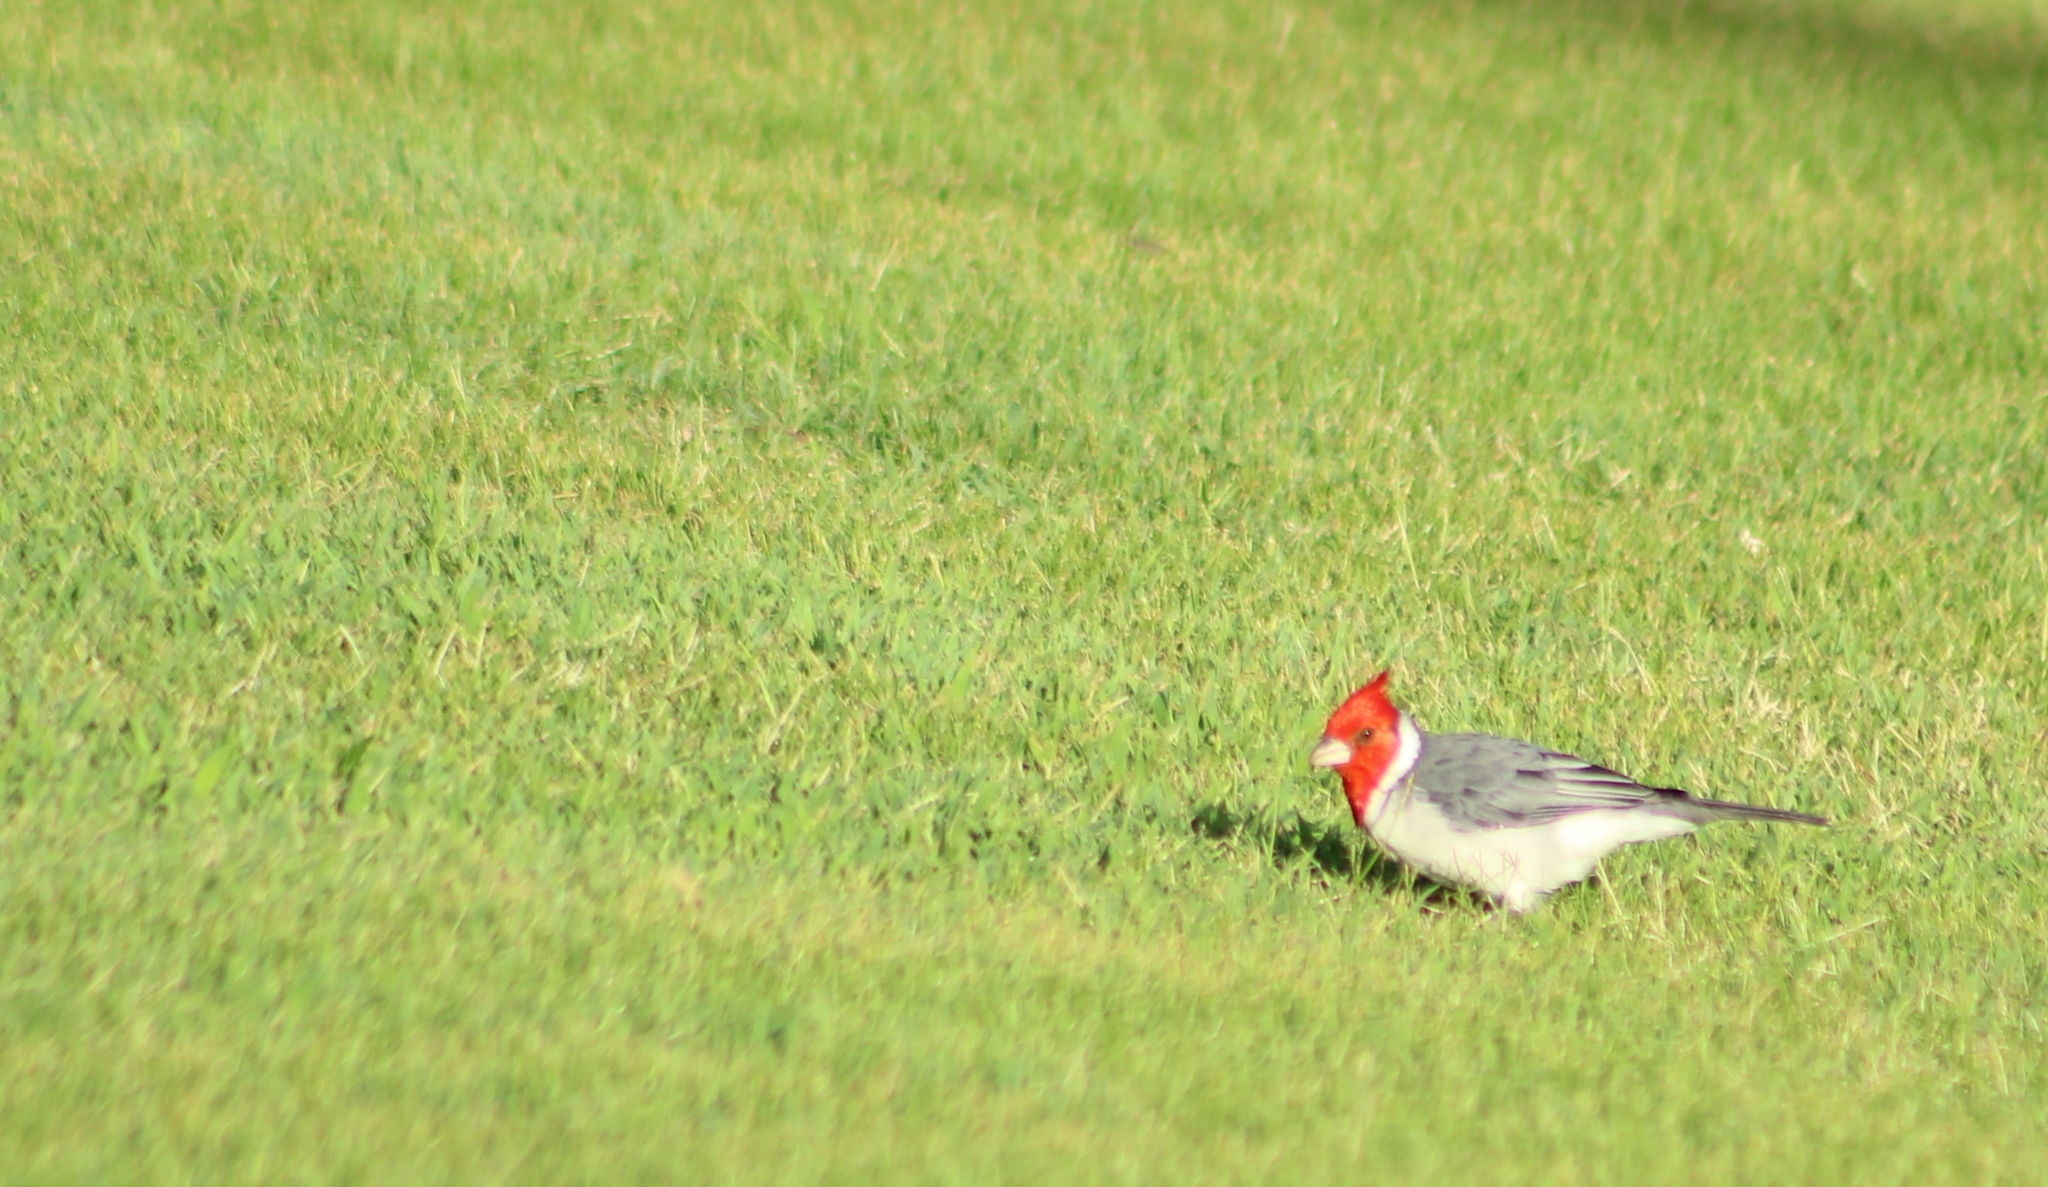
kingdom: Animalia
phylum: Chordata
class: Aves
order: Passeriformes
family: Thraupidae
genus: Paroaria
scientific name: Paroaria coronata
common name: Red-crested cardinal
